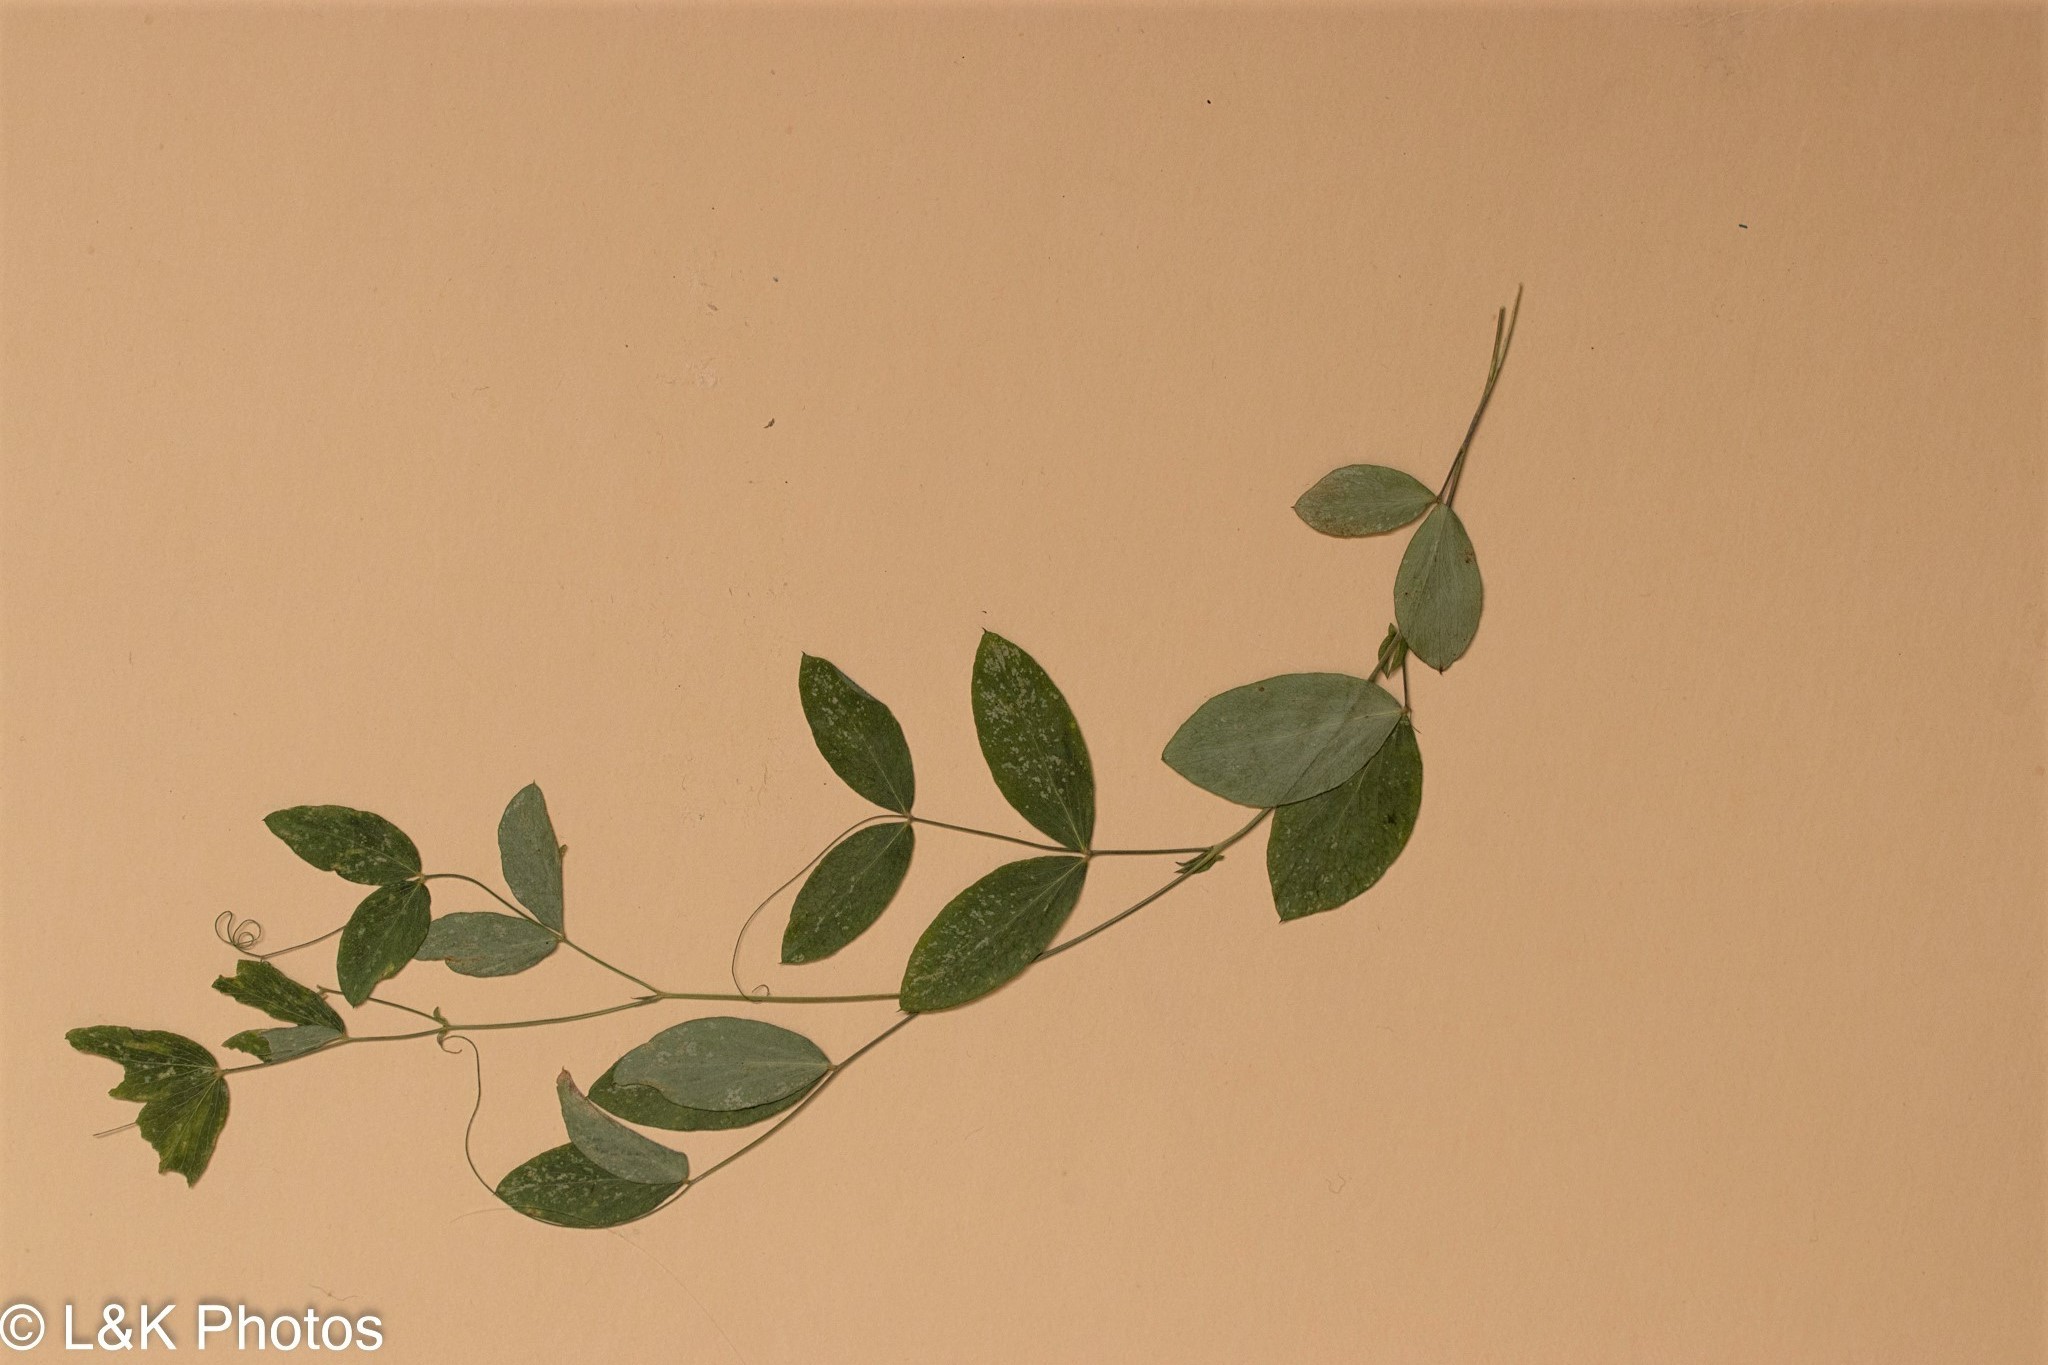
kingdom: Plantae
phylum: Tracheophyta
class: Magnoliopsida
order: Fabales
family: Fabaceae
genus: Lathyrus
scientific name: Lathyrus palustris
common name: Marsh pea
